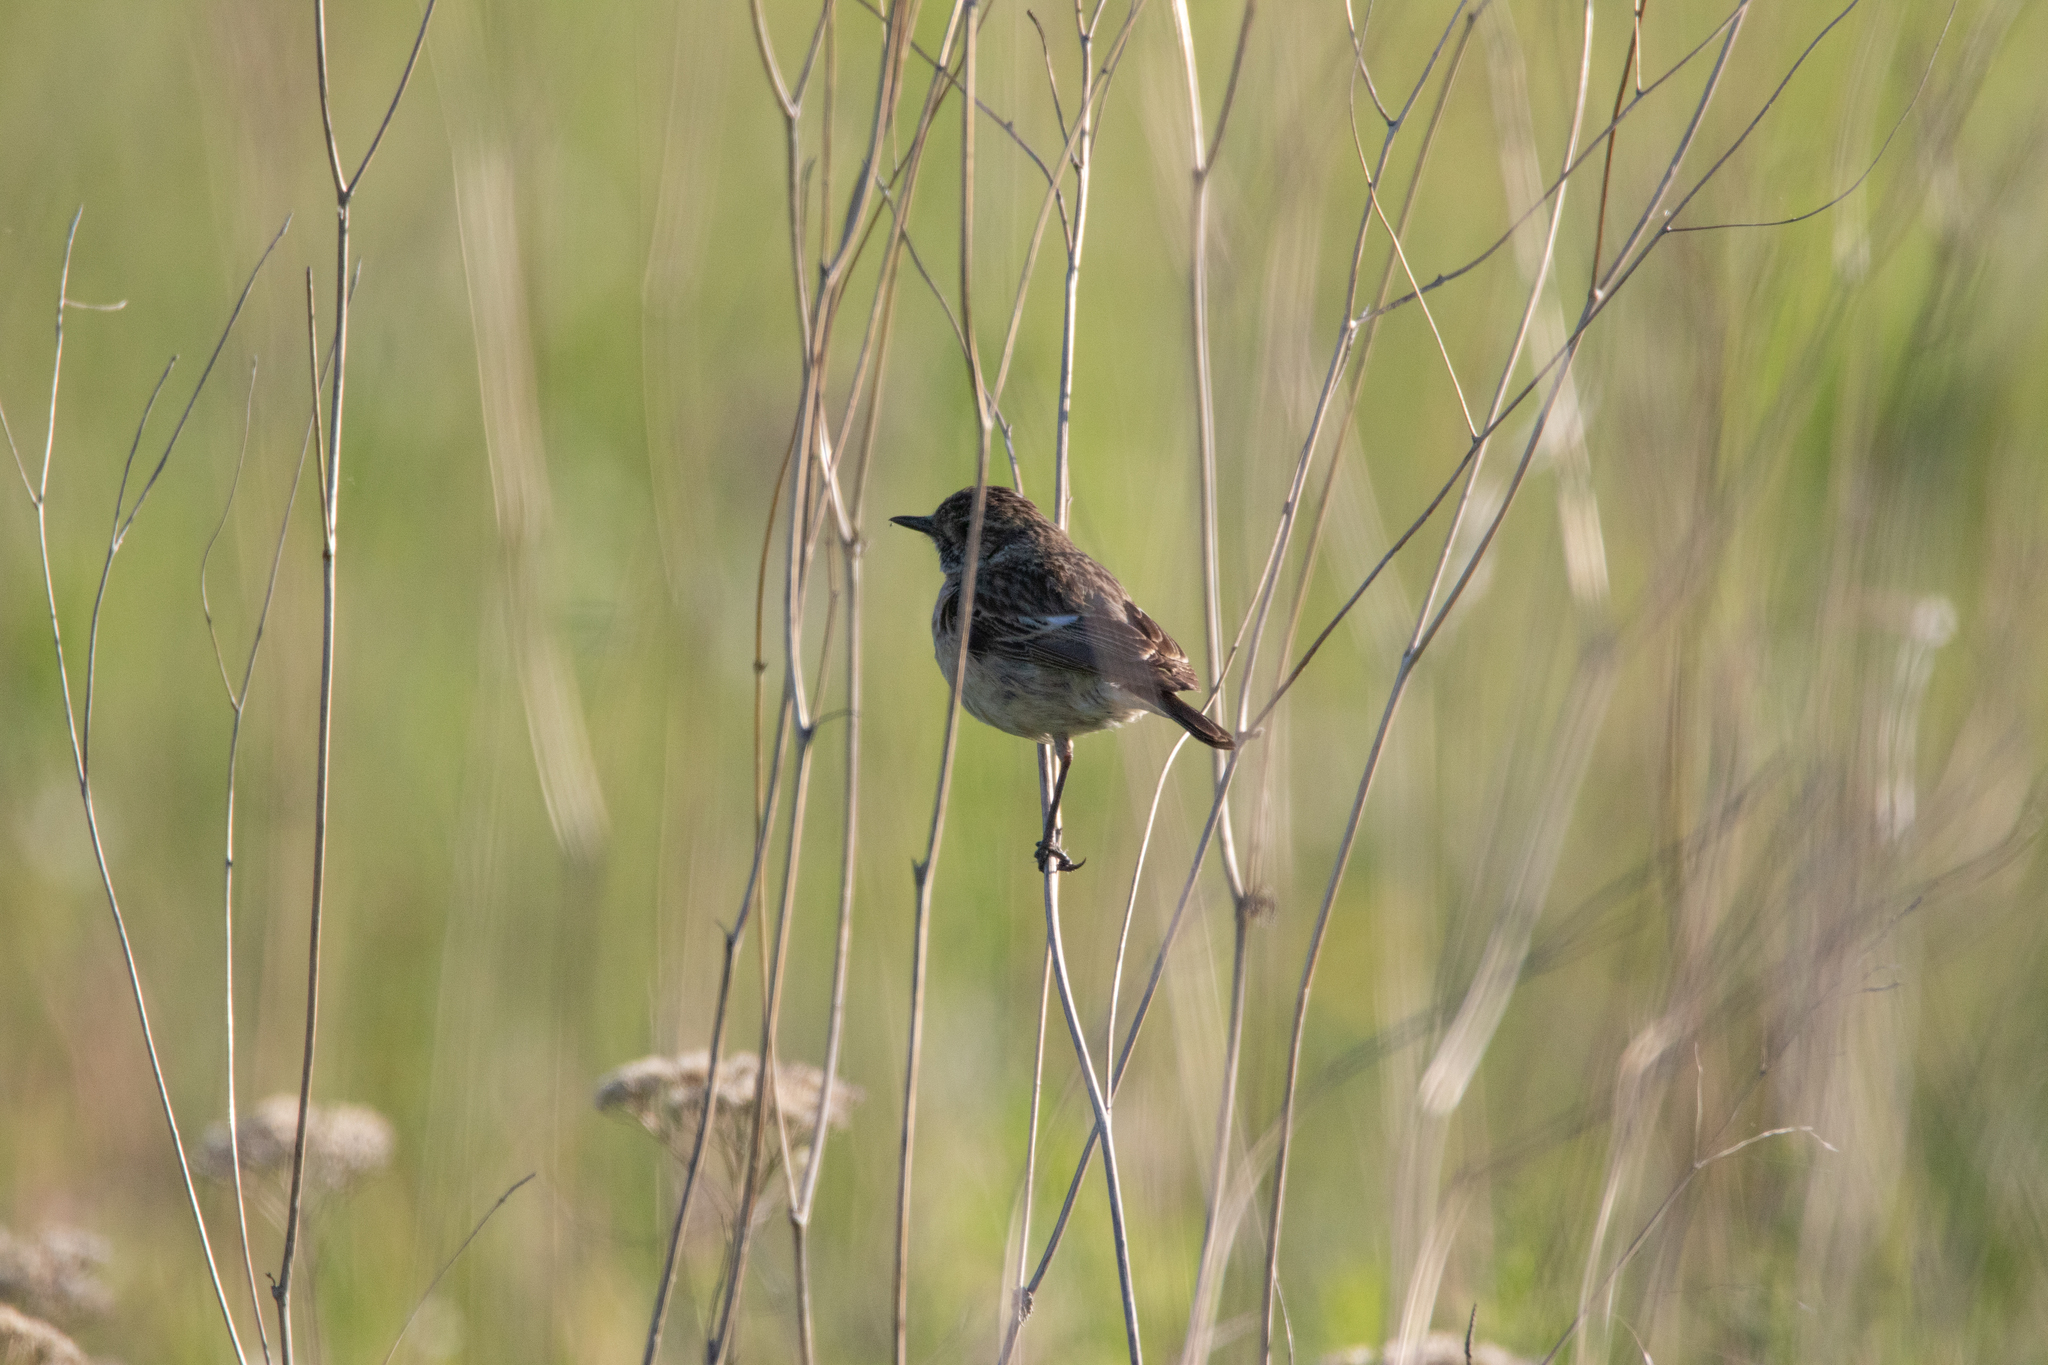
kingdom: Animalia
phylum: Chordata
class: Aves
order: Passeriformes
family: Muscicapidae
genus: Saxicola
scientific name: Saxicola maurus
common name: Siberian stonechat
